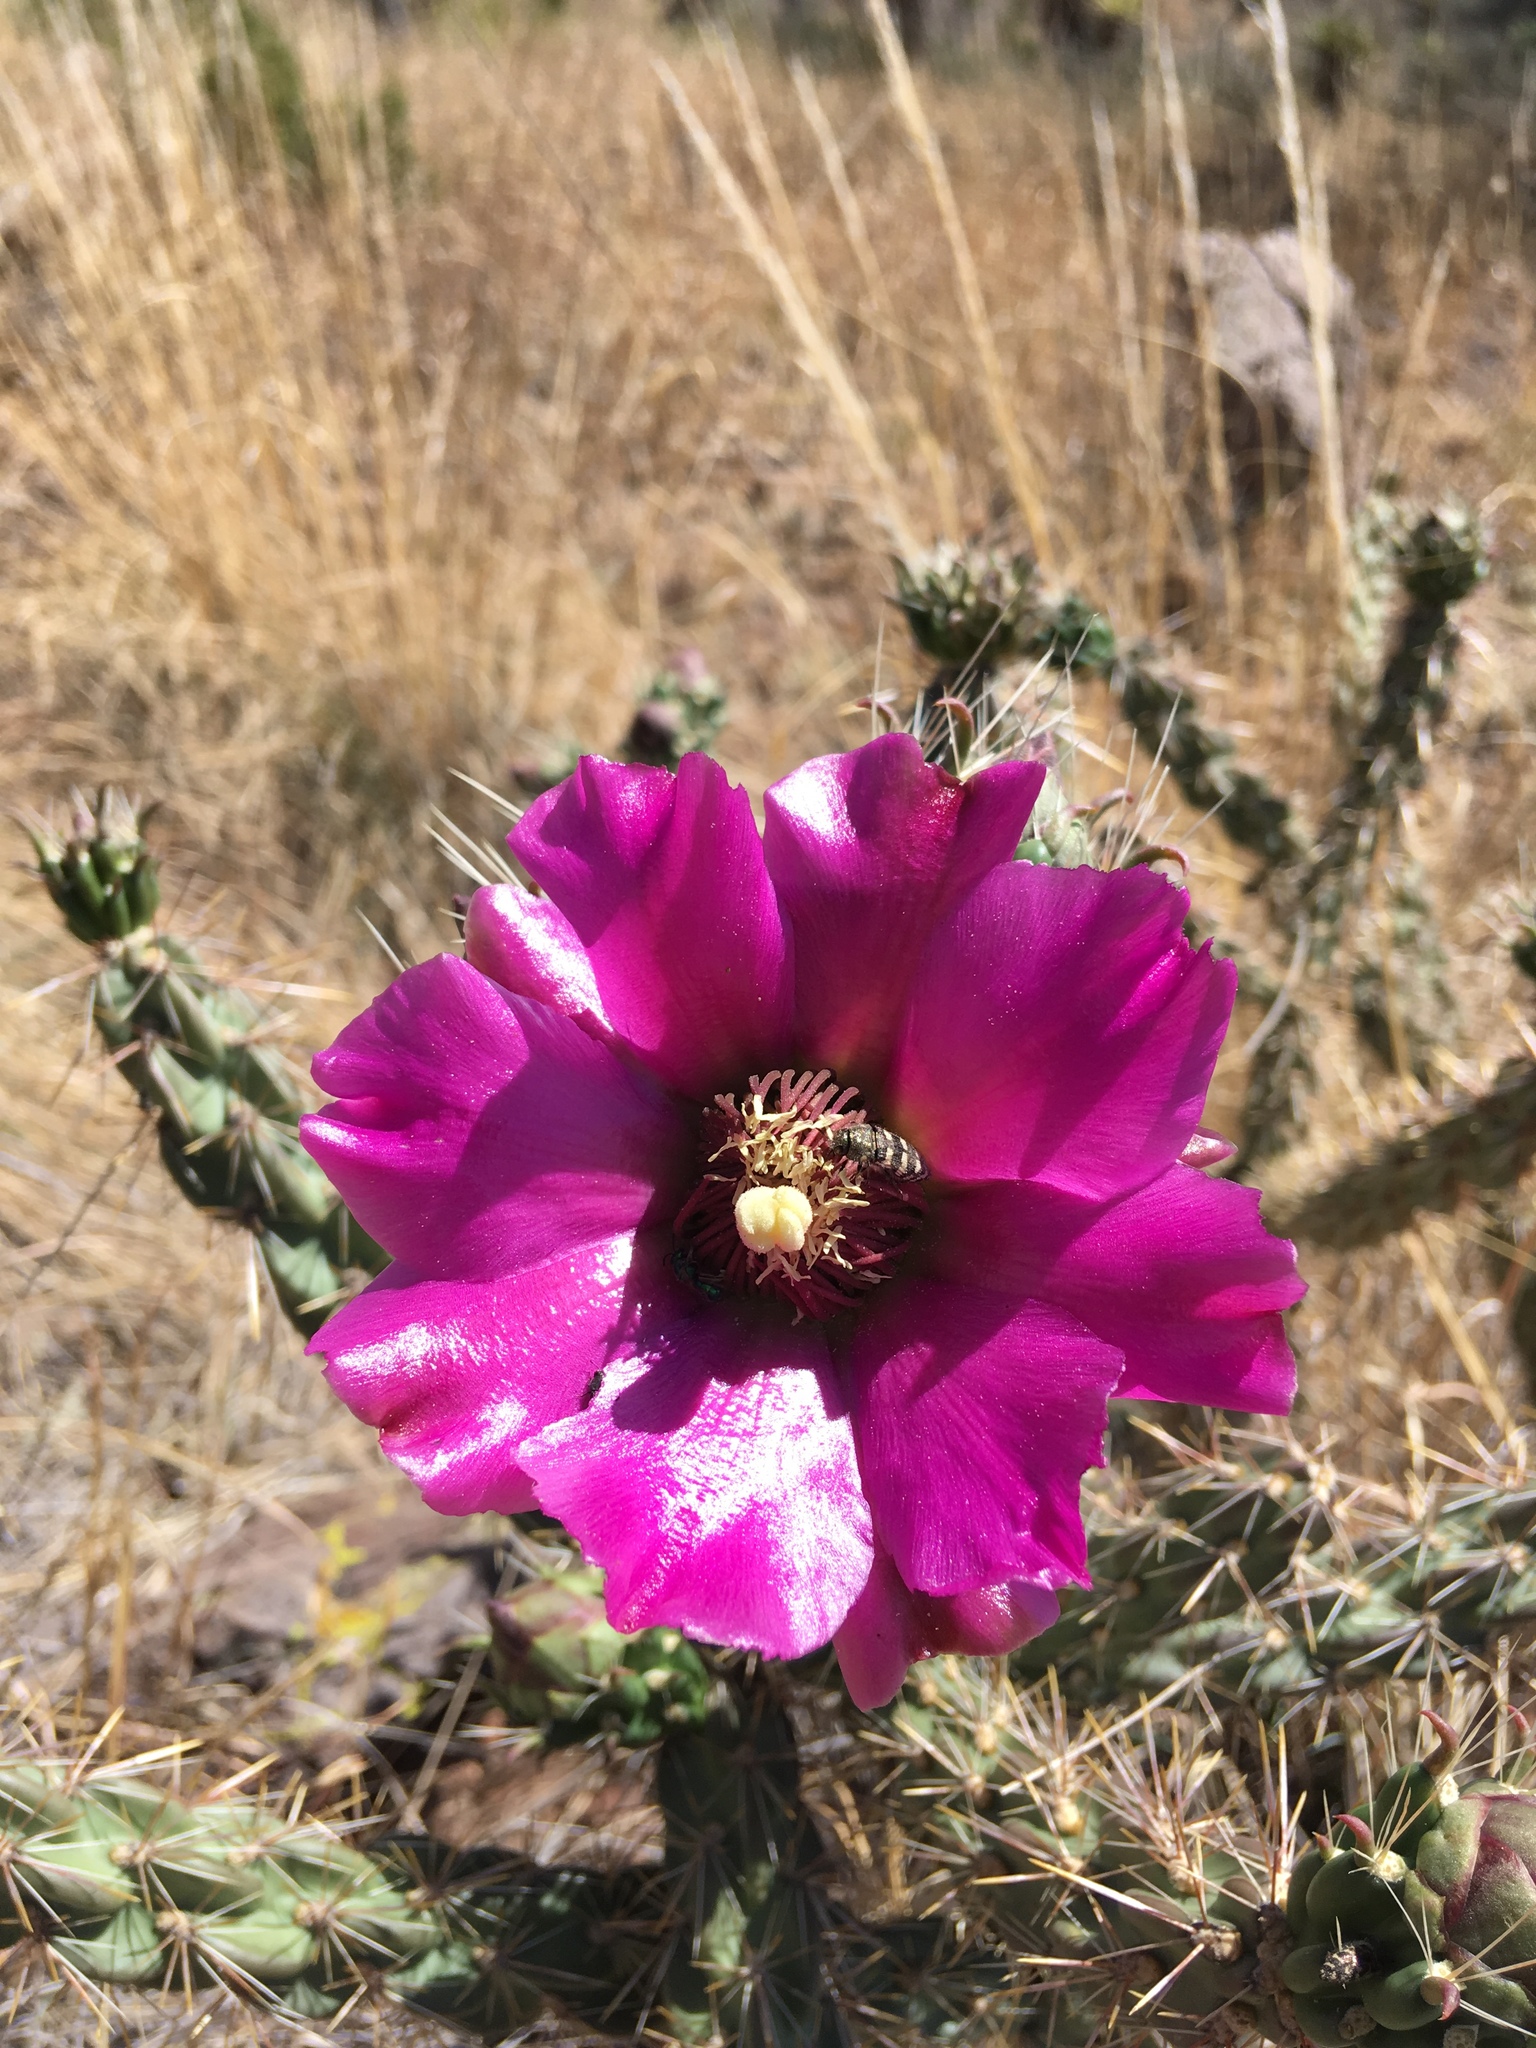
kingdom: Plantae
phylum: Tracheophyta
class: Magnoliopsida
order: Caryophyllales
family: Cactaceae
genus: Cylindropuntia
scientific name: Cylindropuntia imbricata
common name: Candelabrum cactus
